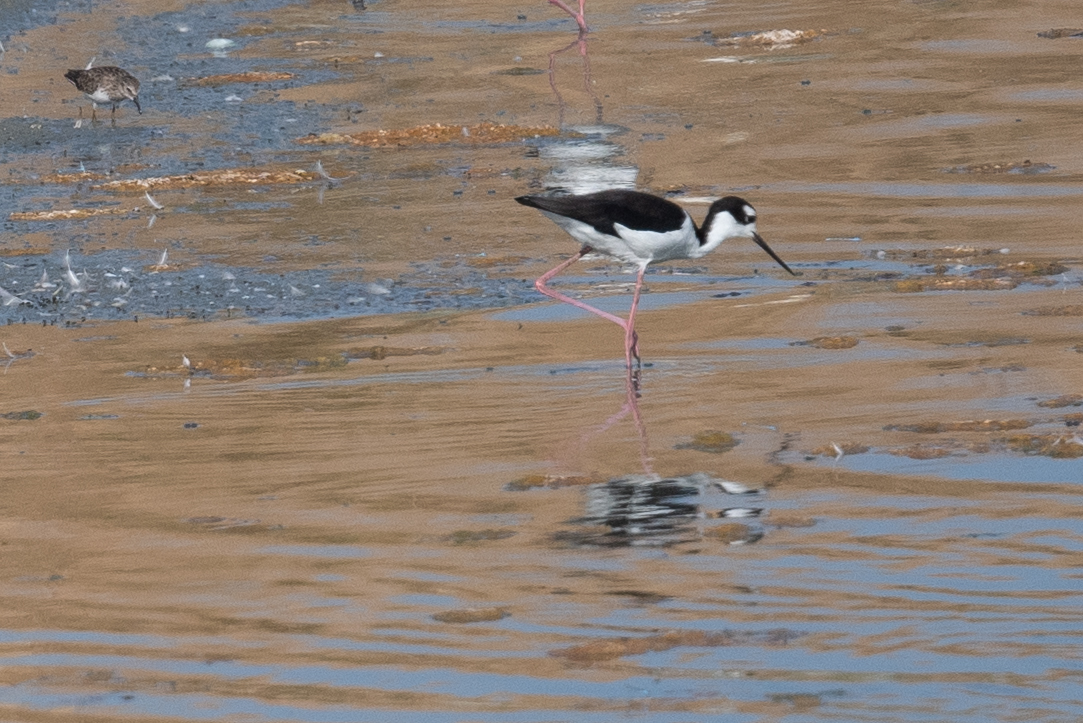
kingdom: Animalia
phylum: Chordata
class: Aves
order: Charadriiformes
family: Recurvirostridae
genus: Himantopus
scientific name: Himantopus mexicanus
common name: Black-necked stilt
